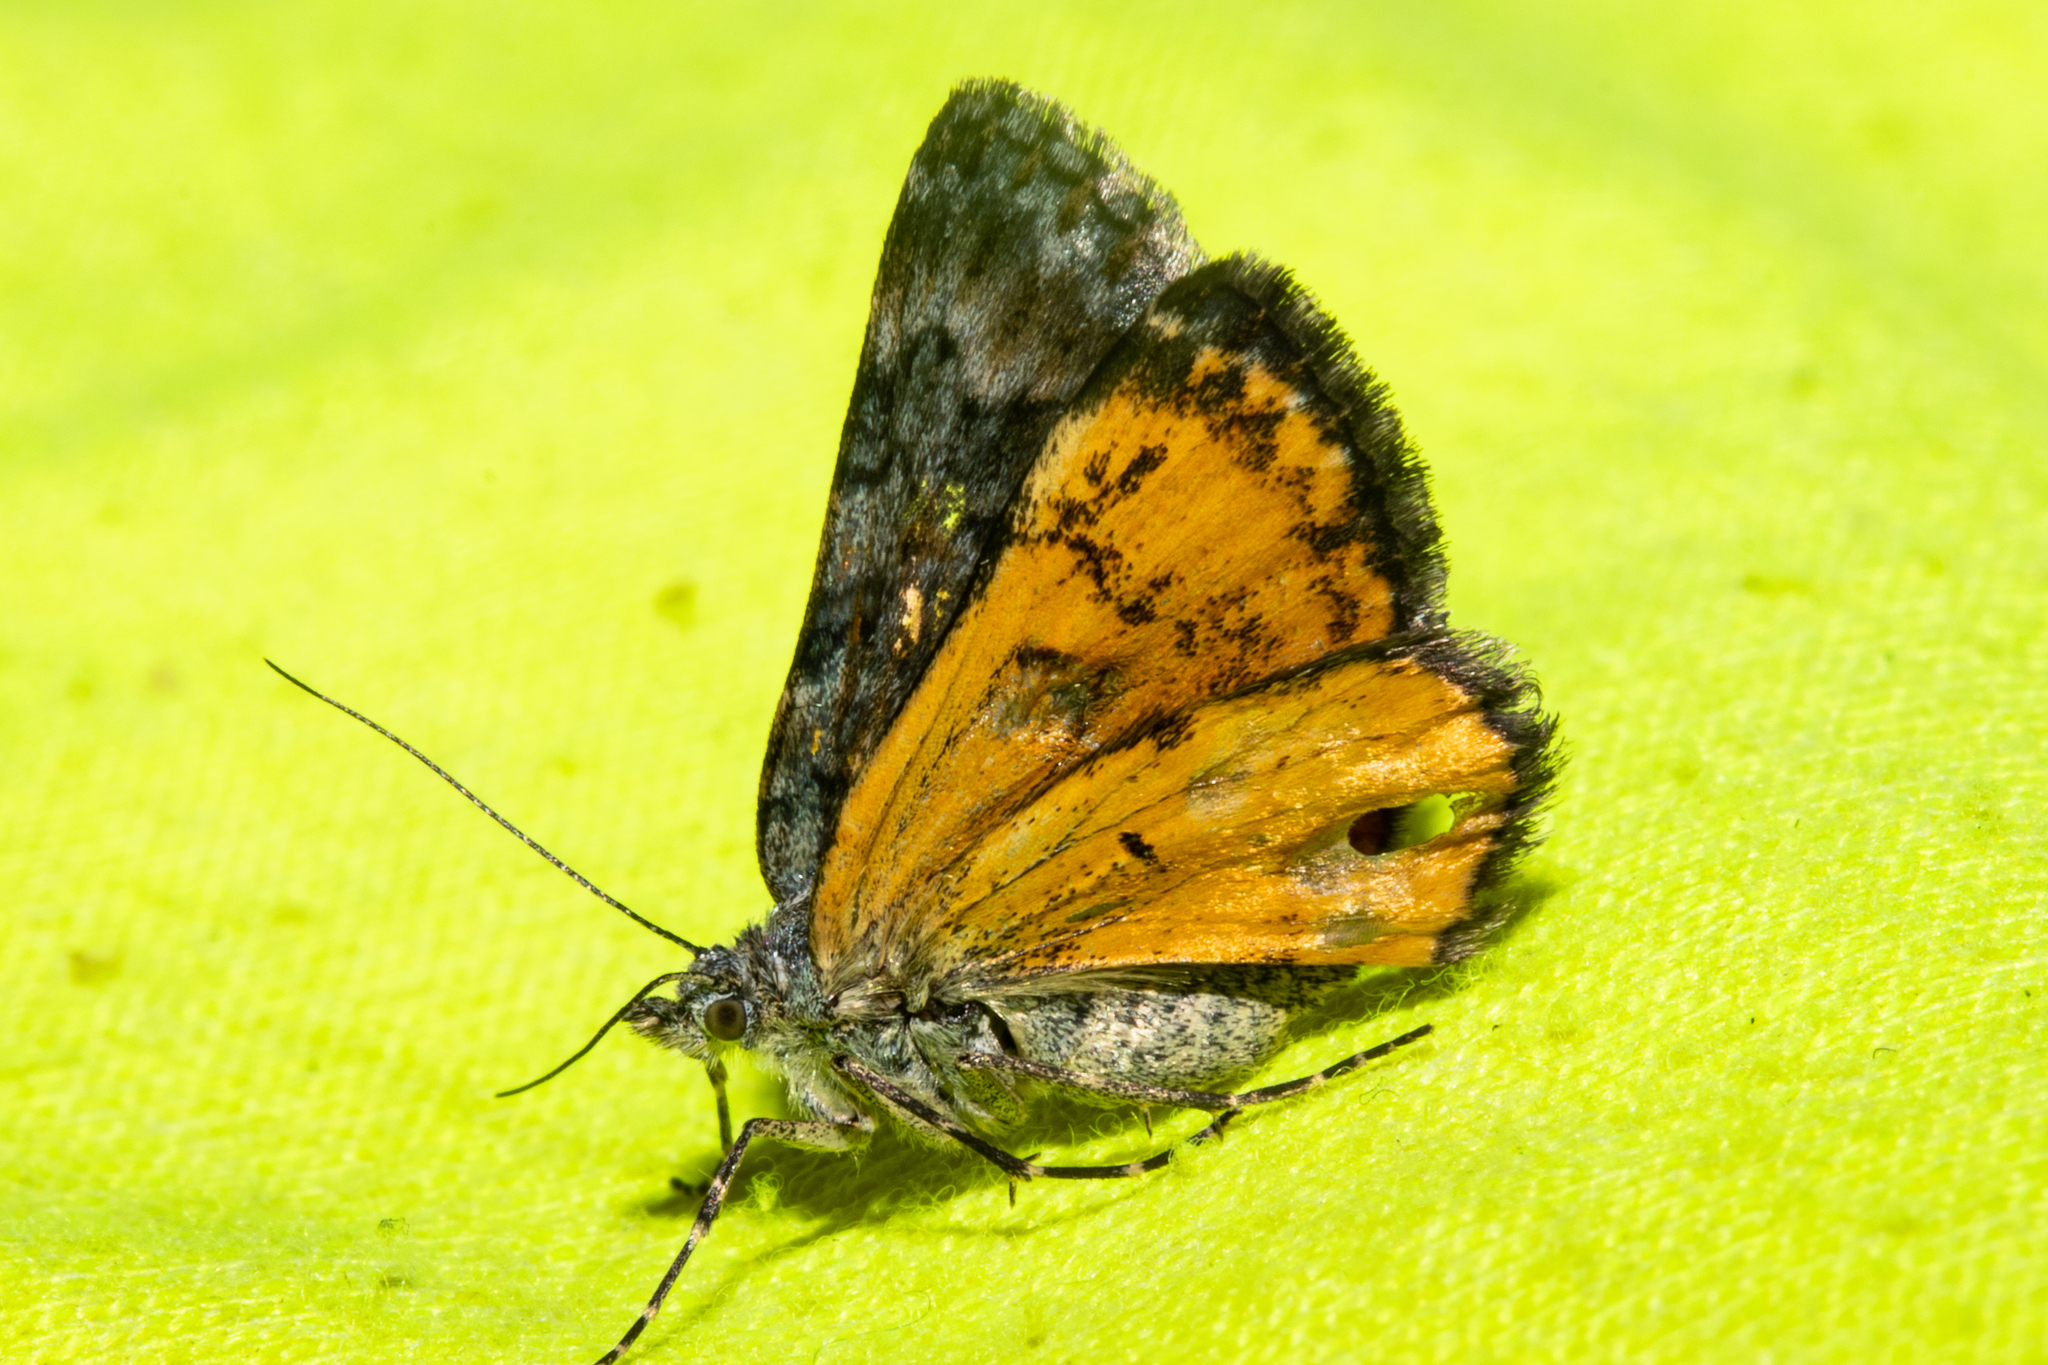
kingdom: Animalia
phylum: Arthropoda
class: Insecta
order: Lepidoptera
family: Geometridae
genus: Paranotoreas
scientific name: Paranotoreas zopyra
